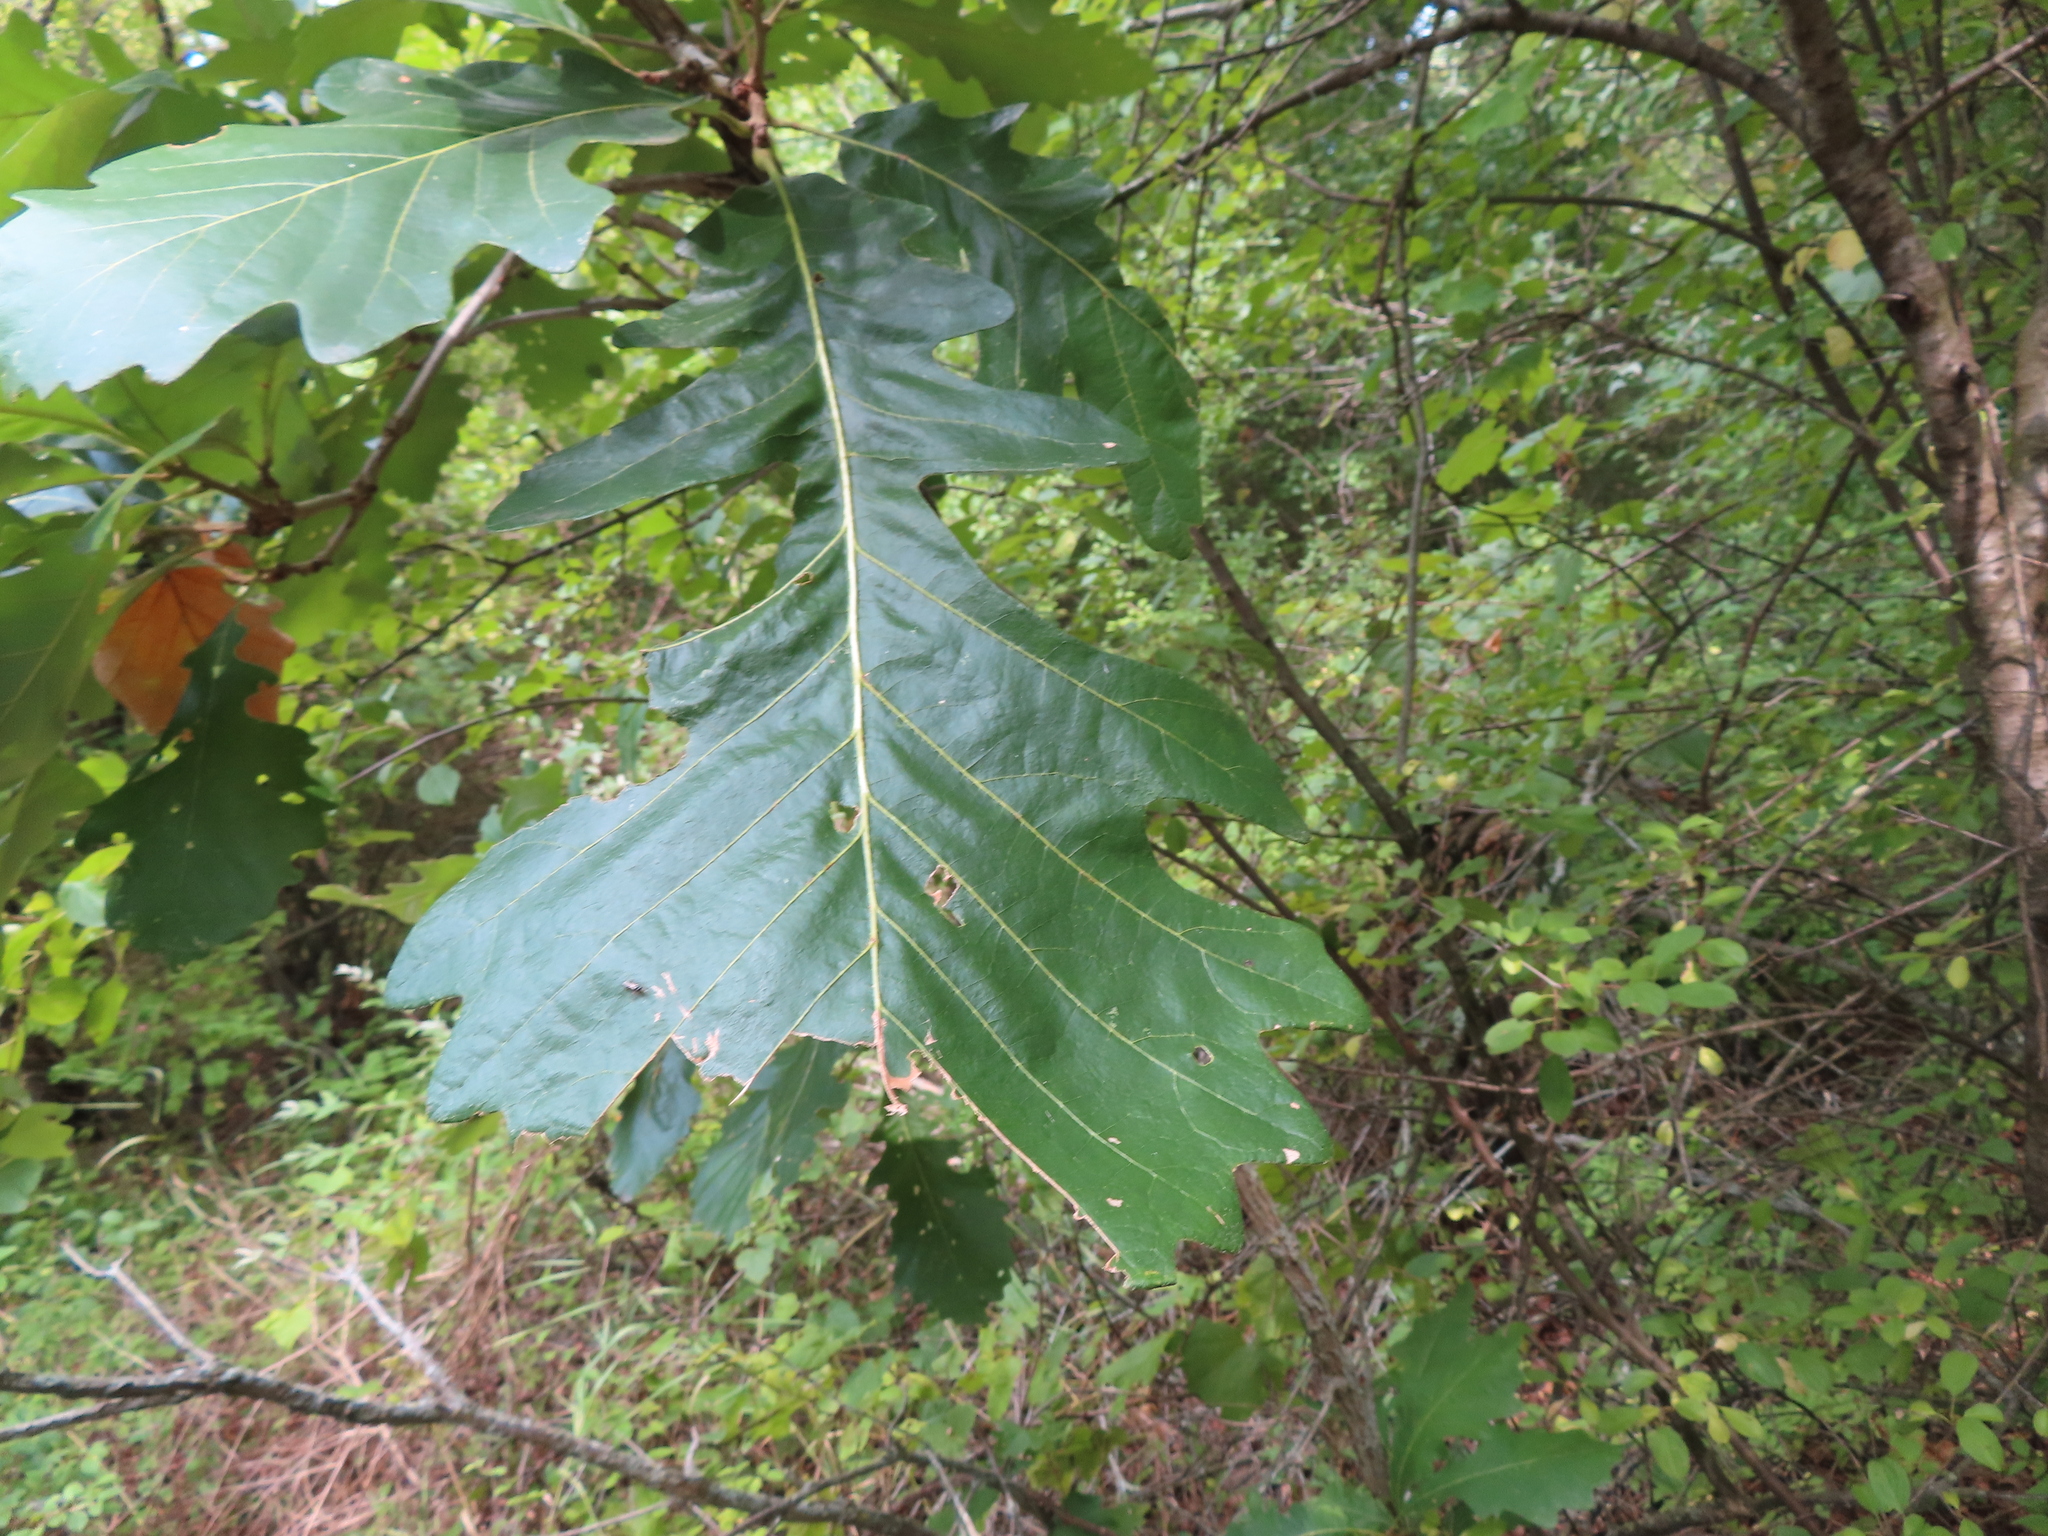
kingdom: Plantae
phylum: Tracheophyta
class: Magnoliopsida
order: Fagales
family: Fagaceae
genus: Quercus
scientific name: Quercus macrocarpa
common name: Bur oak
